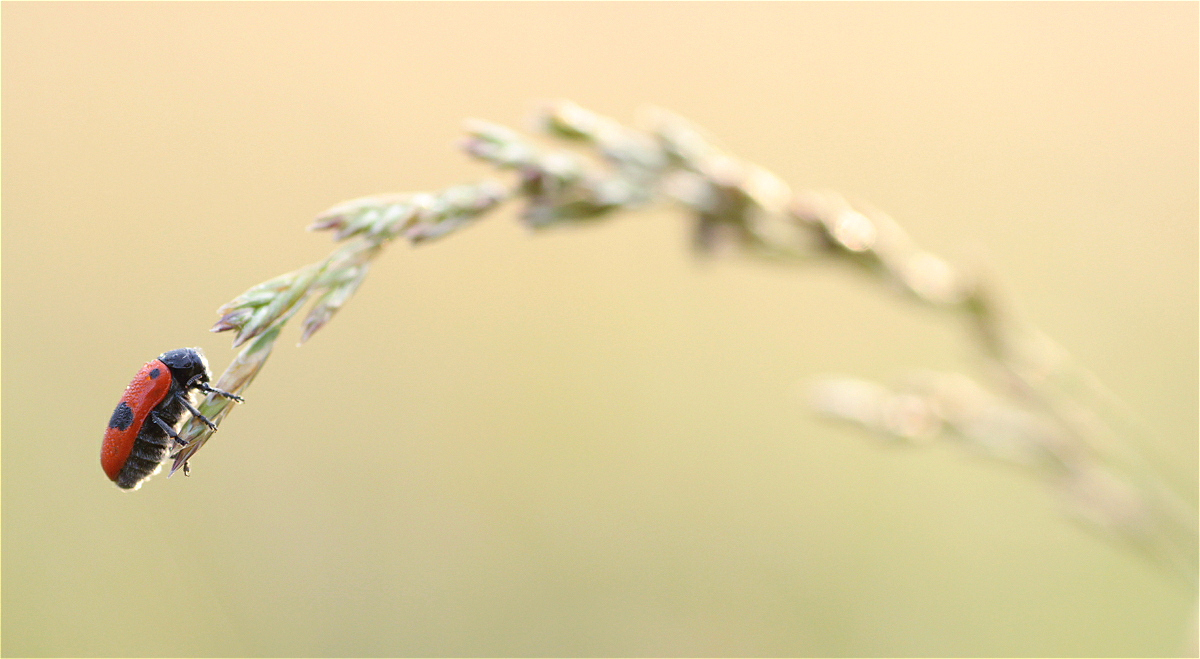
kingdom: Animalia
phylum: Arthropoda
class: Insecta
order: Coleoptera
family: Chrysomelidae
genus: Clytra
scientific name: Clytra laeviuscula
